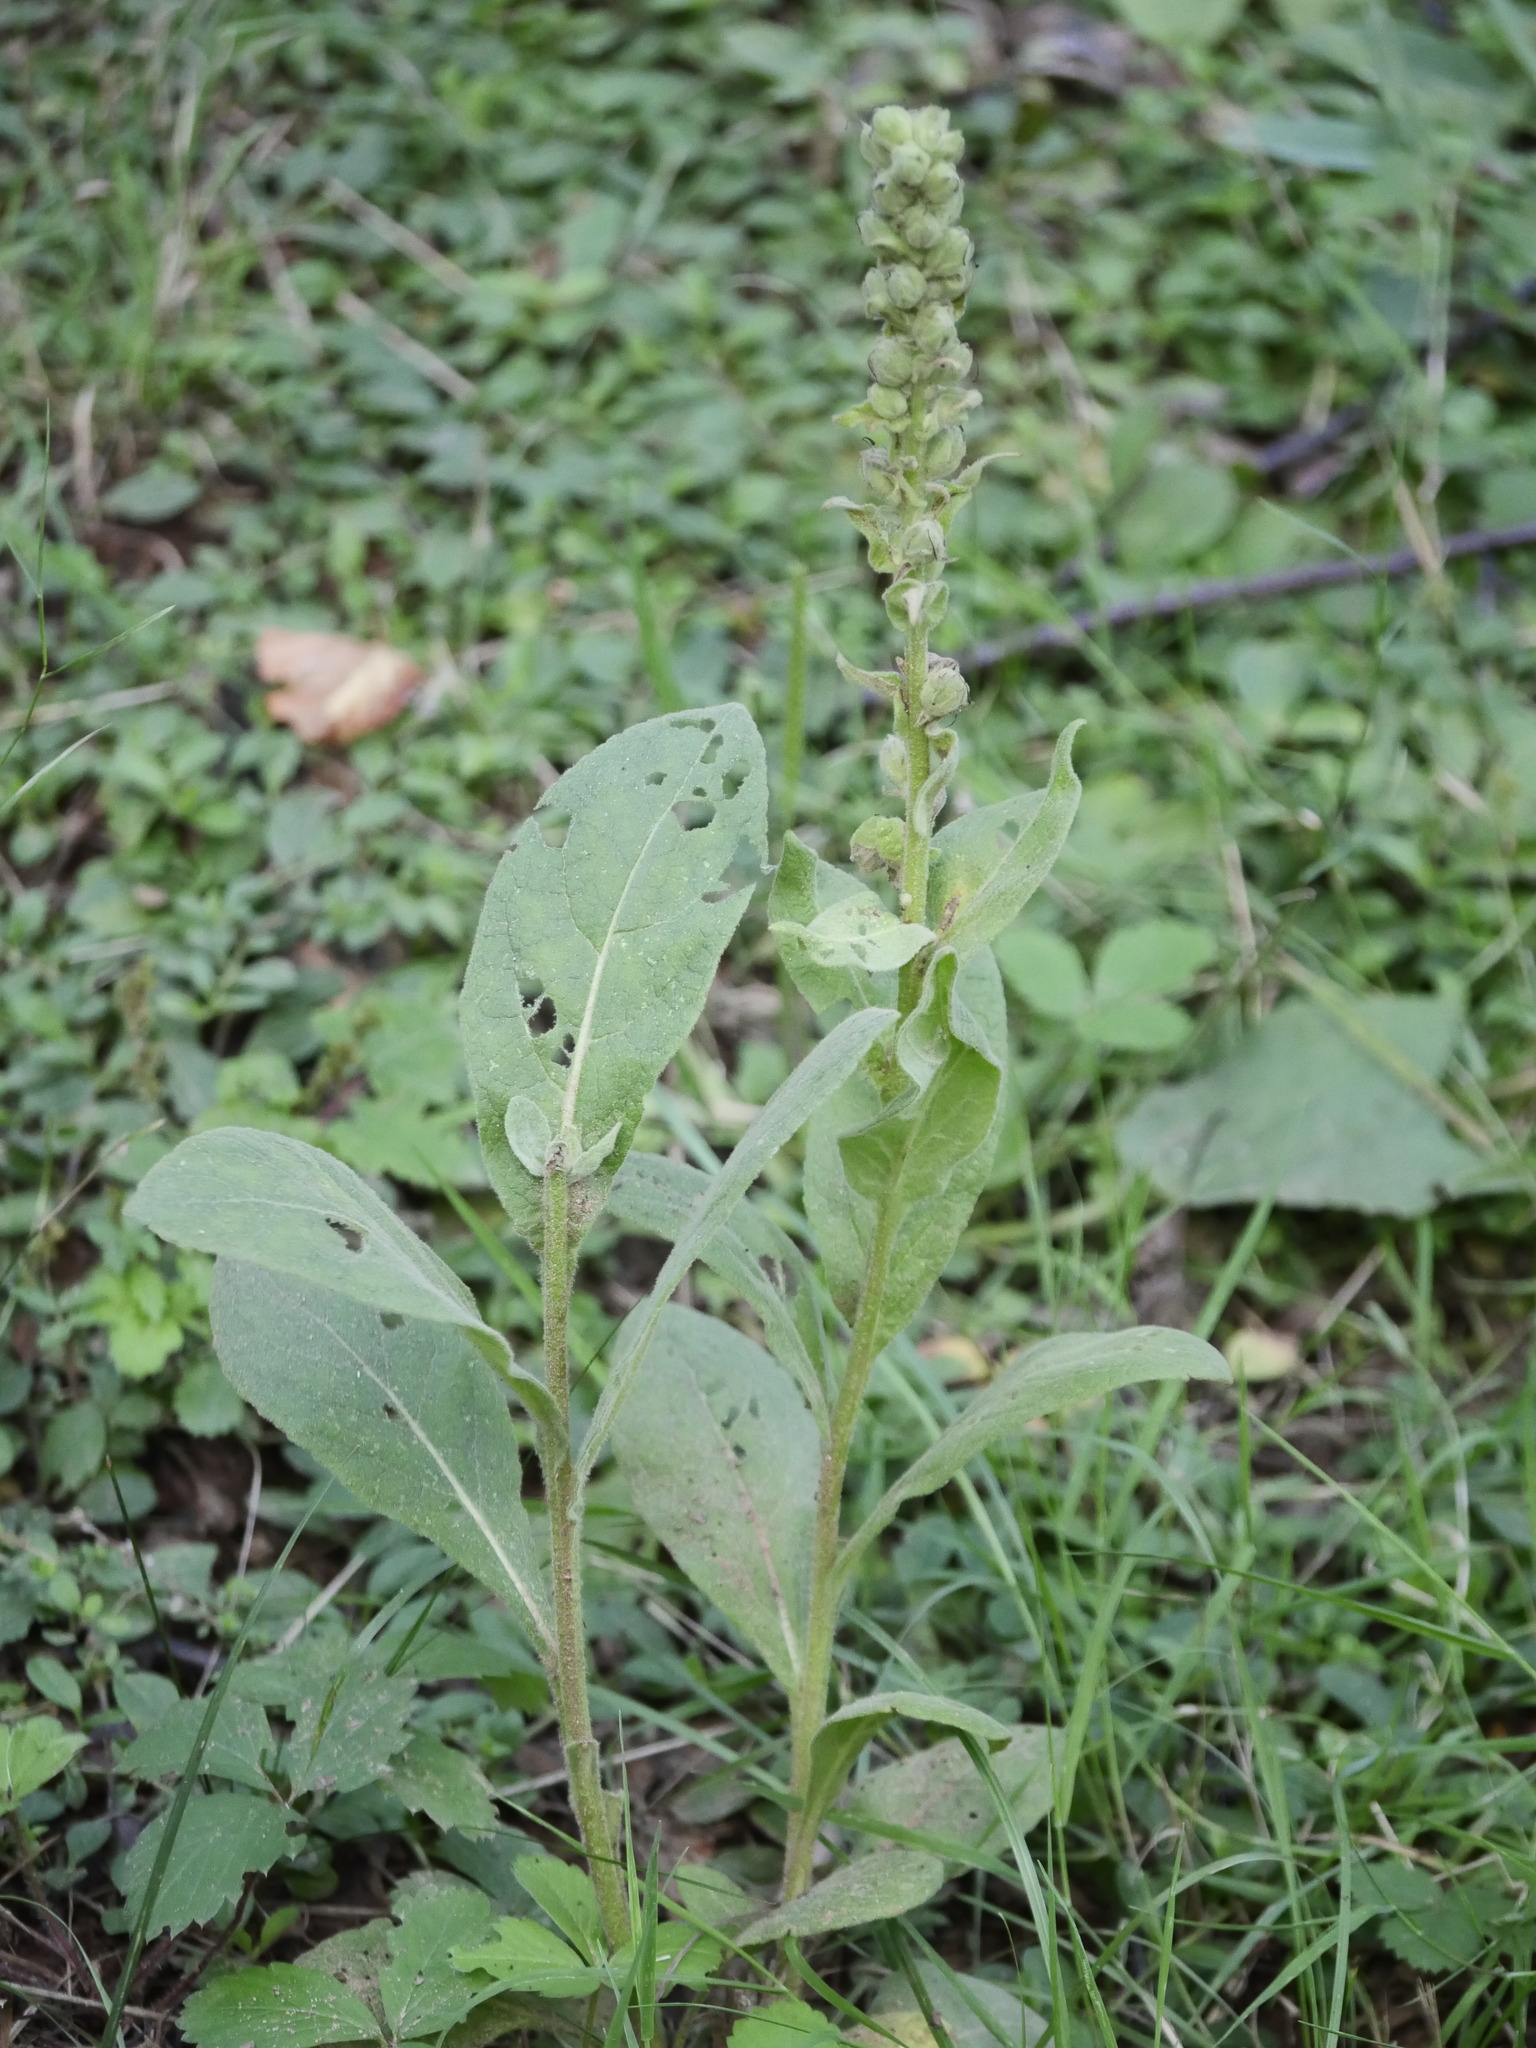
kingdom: Plantae
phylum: Tracheophyta
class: Magnoliopsida
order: Lamiales
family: Scrophulariaceae
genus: Verbascum
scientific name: Verbascum thapsus
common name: Common mullein
